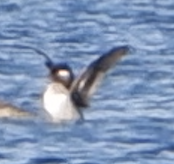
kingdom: Animalia
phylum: Chordata
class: Aves
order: Anseriformes
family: Anatidae
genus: Bucephala
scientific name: Bucephala albeola
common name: Bufflehead
